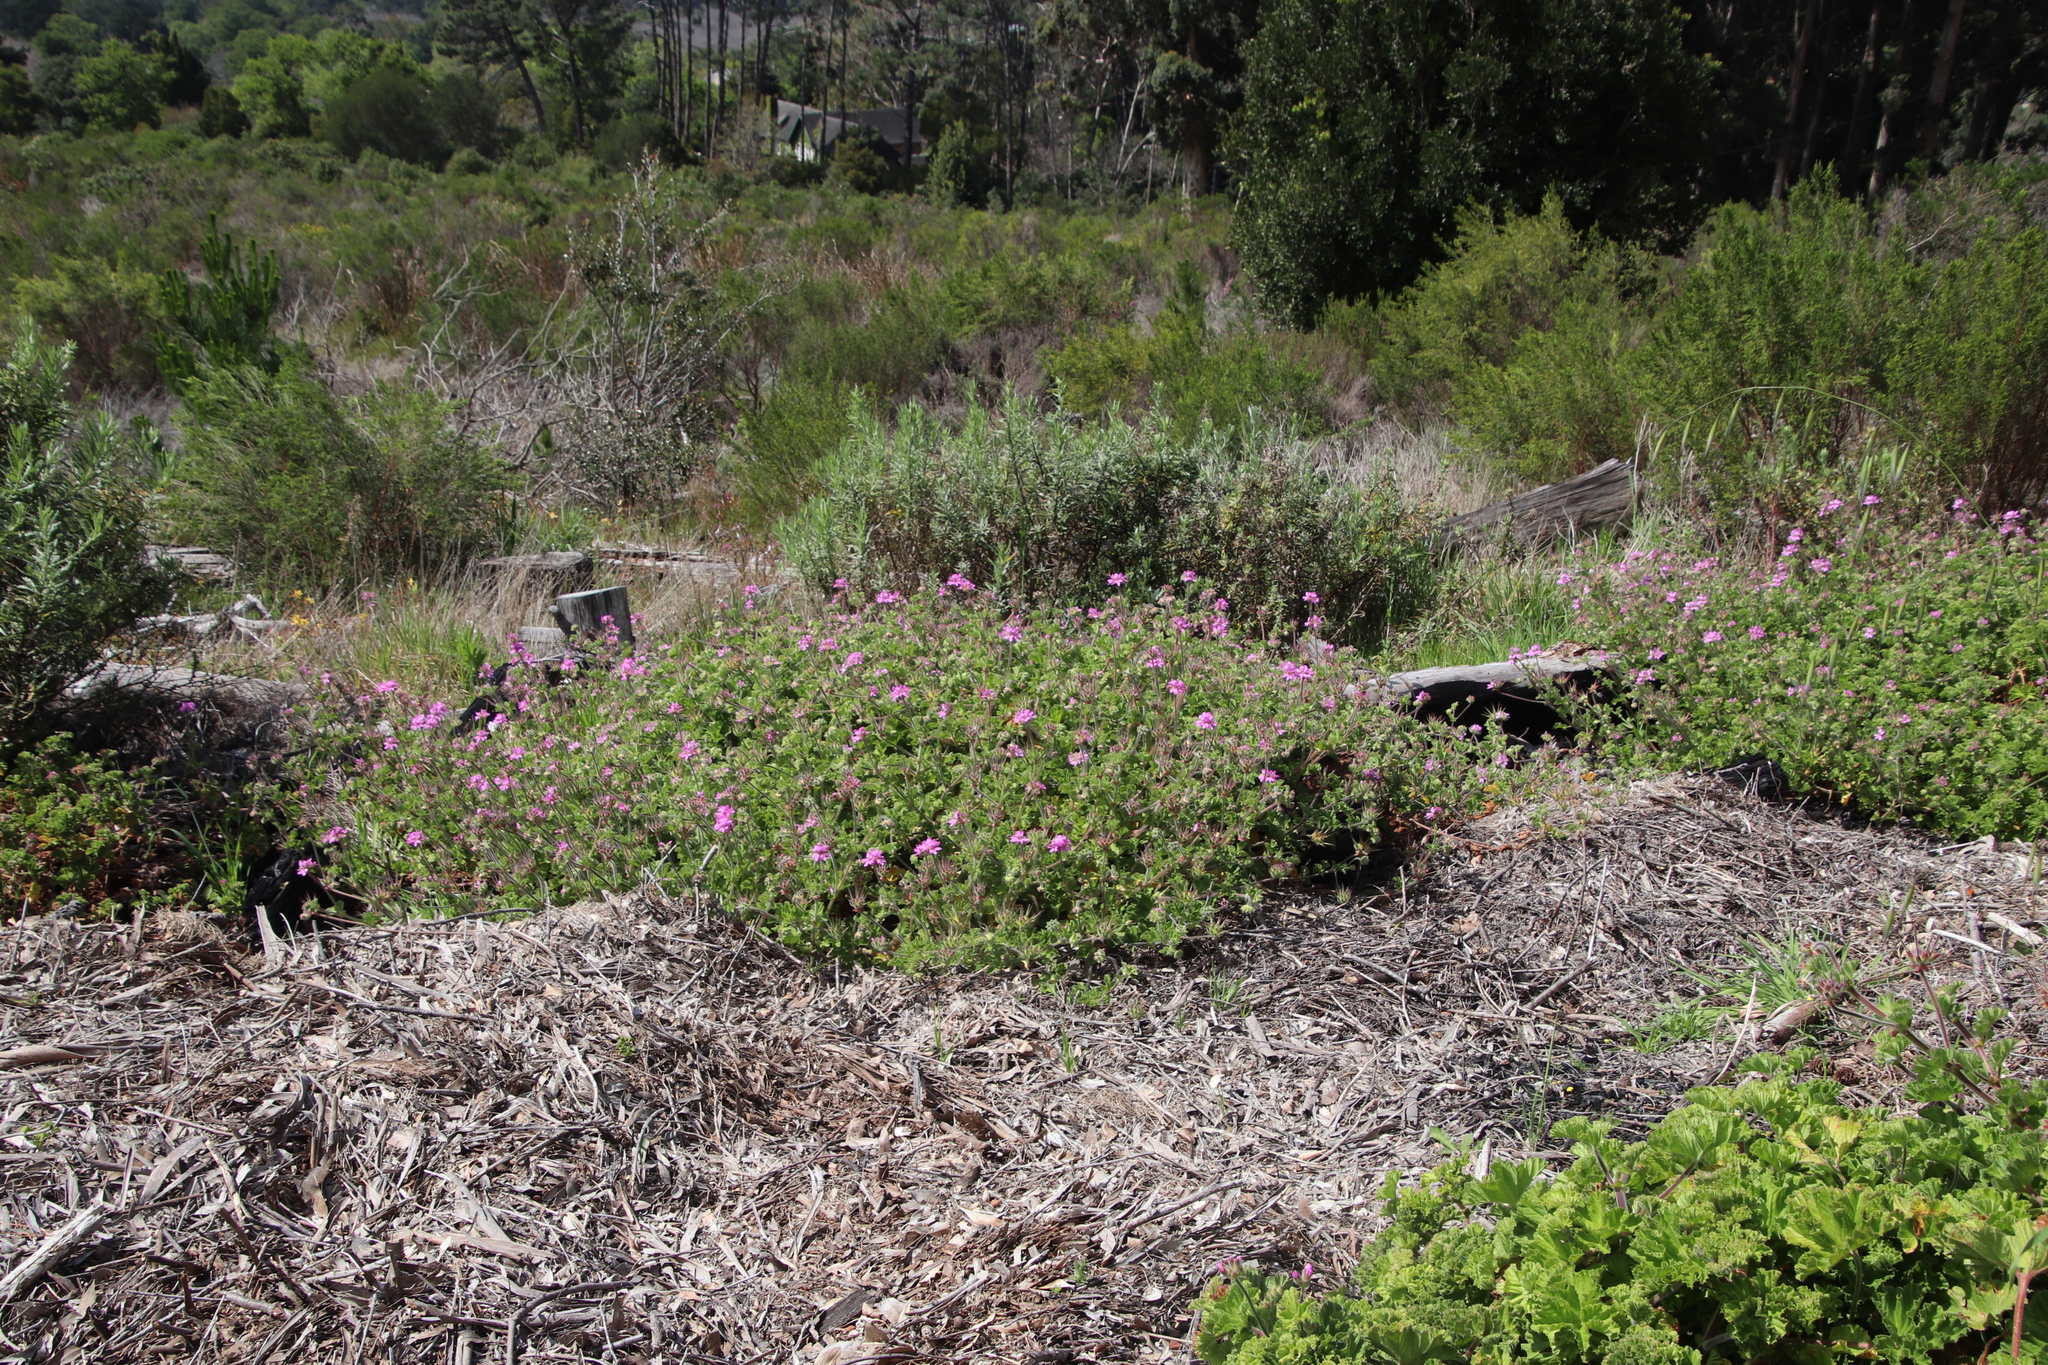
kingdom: Plantae
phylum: Tracheophyta
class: Magnoliopsida
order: Geraniales
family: Geraniaceae
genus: Pelargonium
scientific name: Pelargonium capitatum
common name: Rose scented geranium
